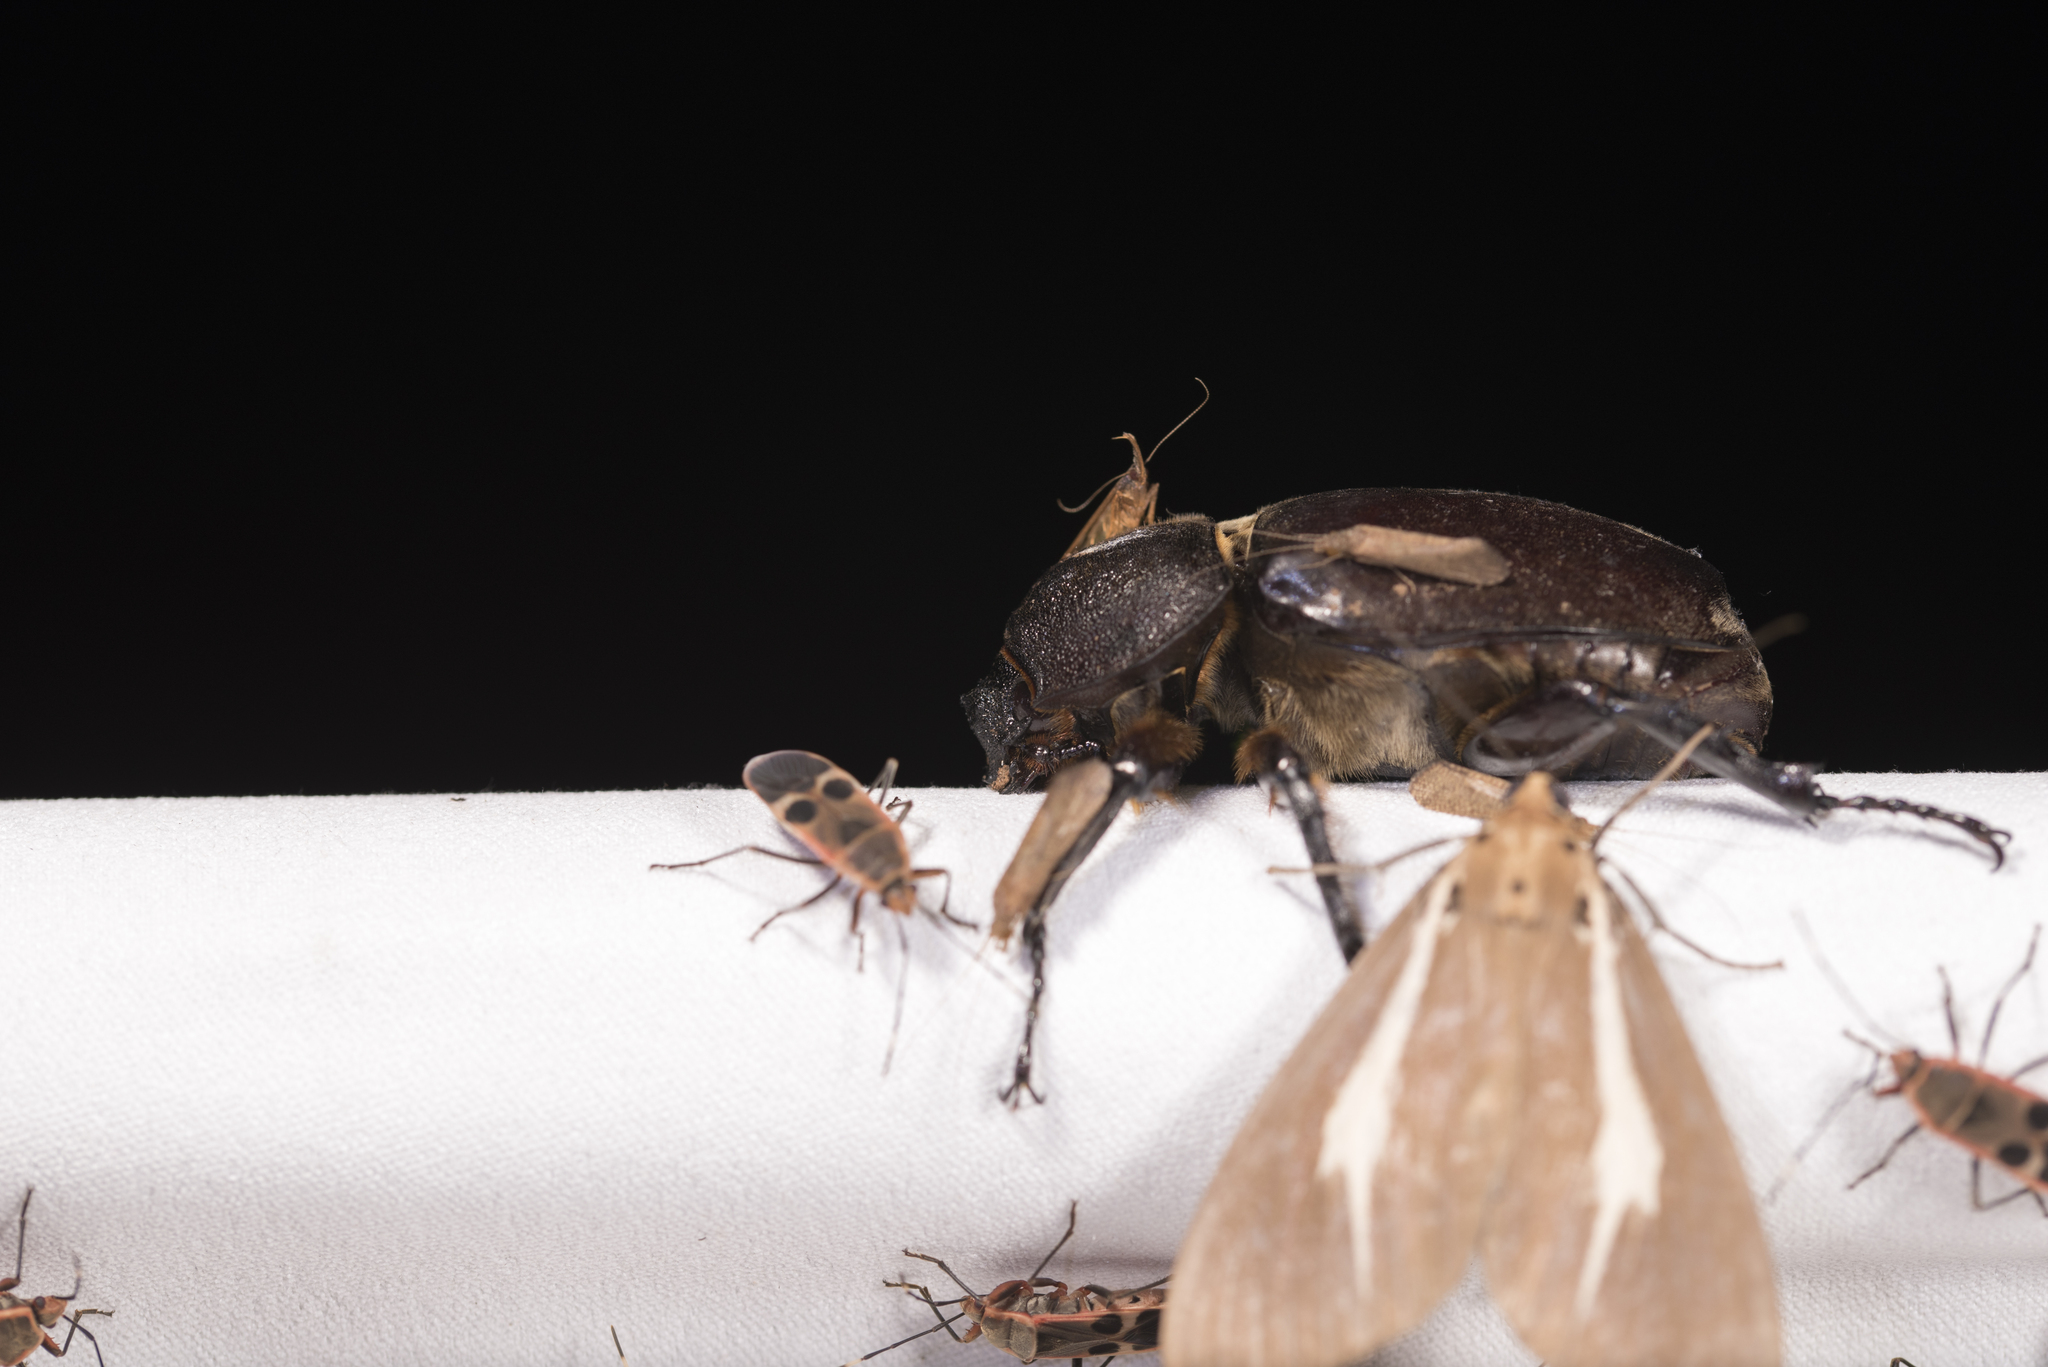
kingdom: Animalia
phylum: Arthropoda
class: Insecta
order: Coleoptera
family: Scarabaeidae
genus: Trypoxylus
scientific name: Trypoxylus dichotomus
